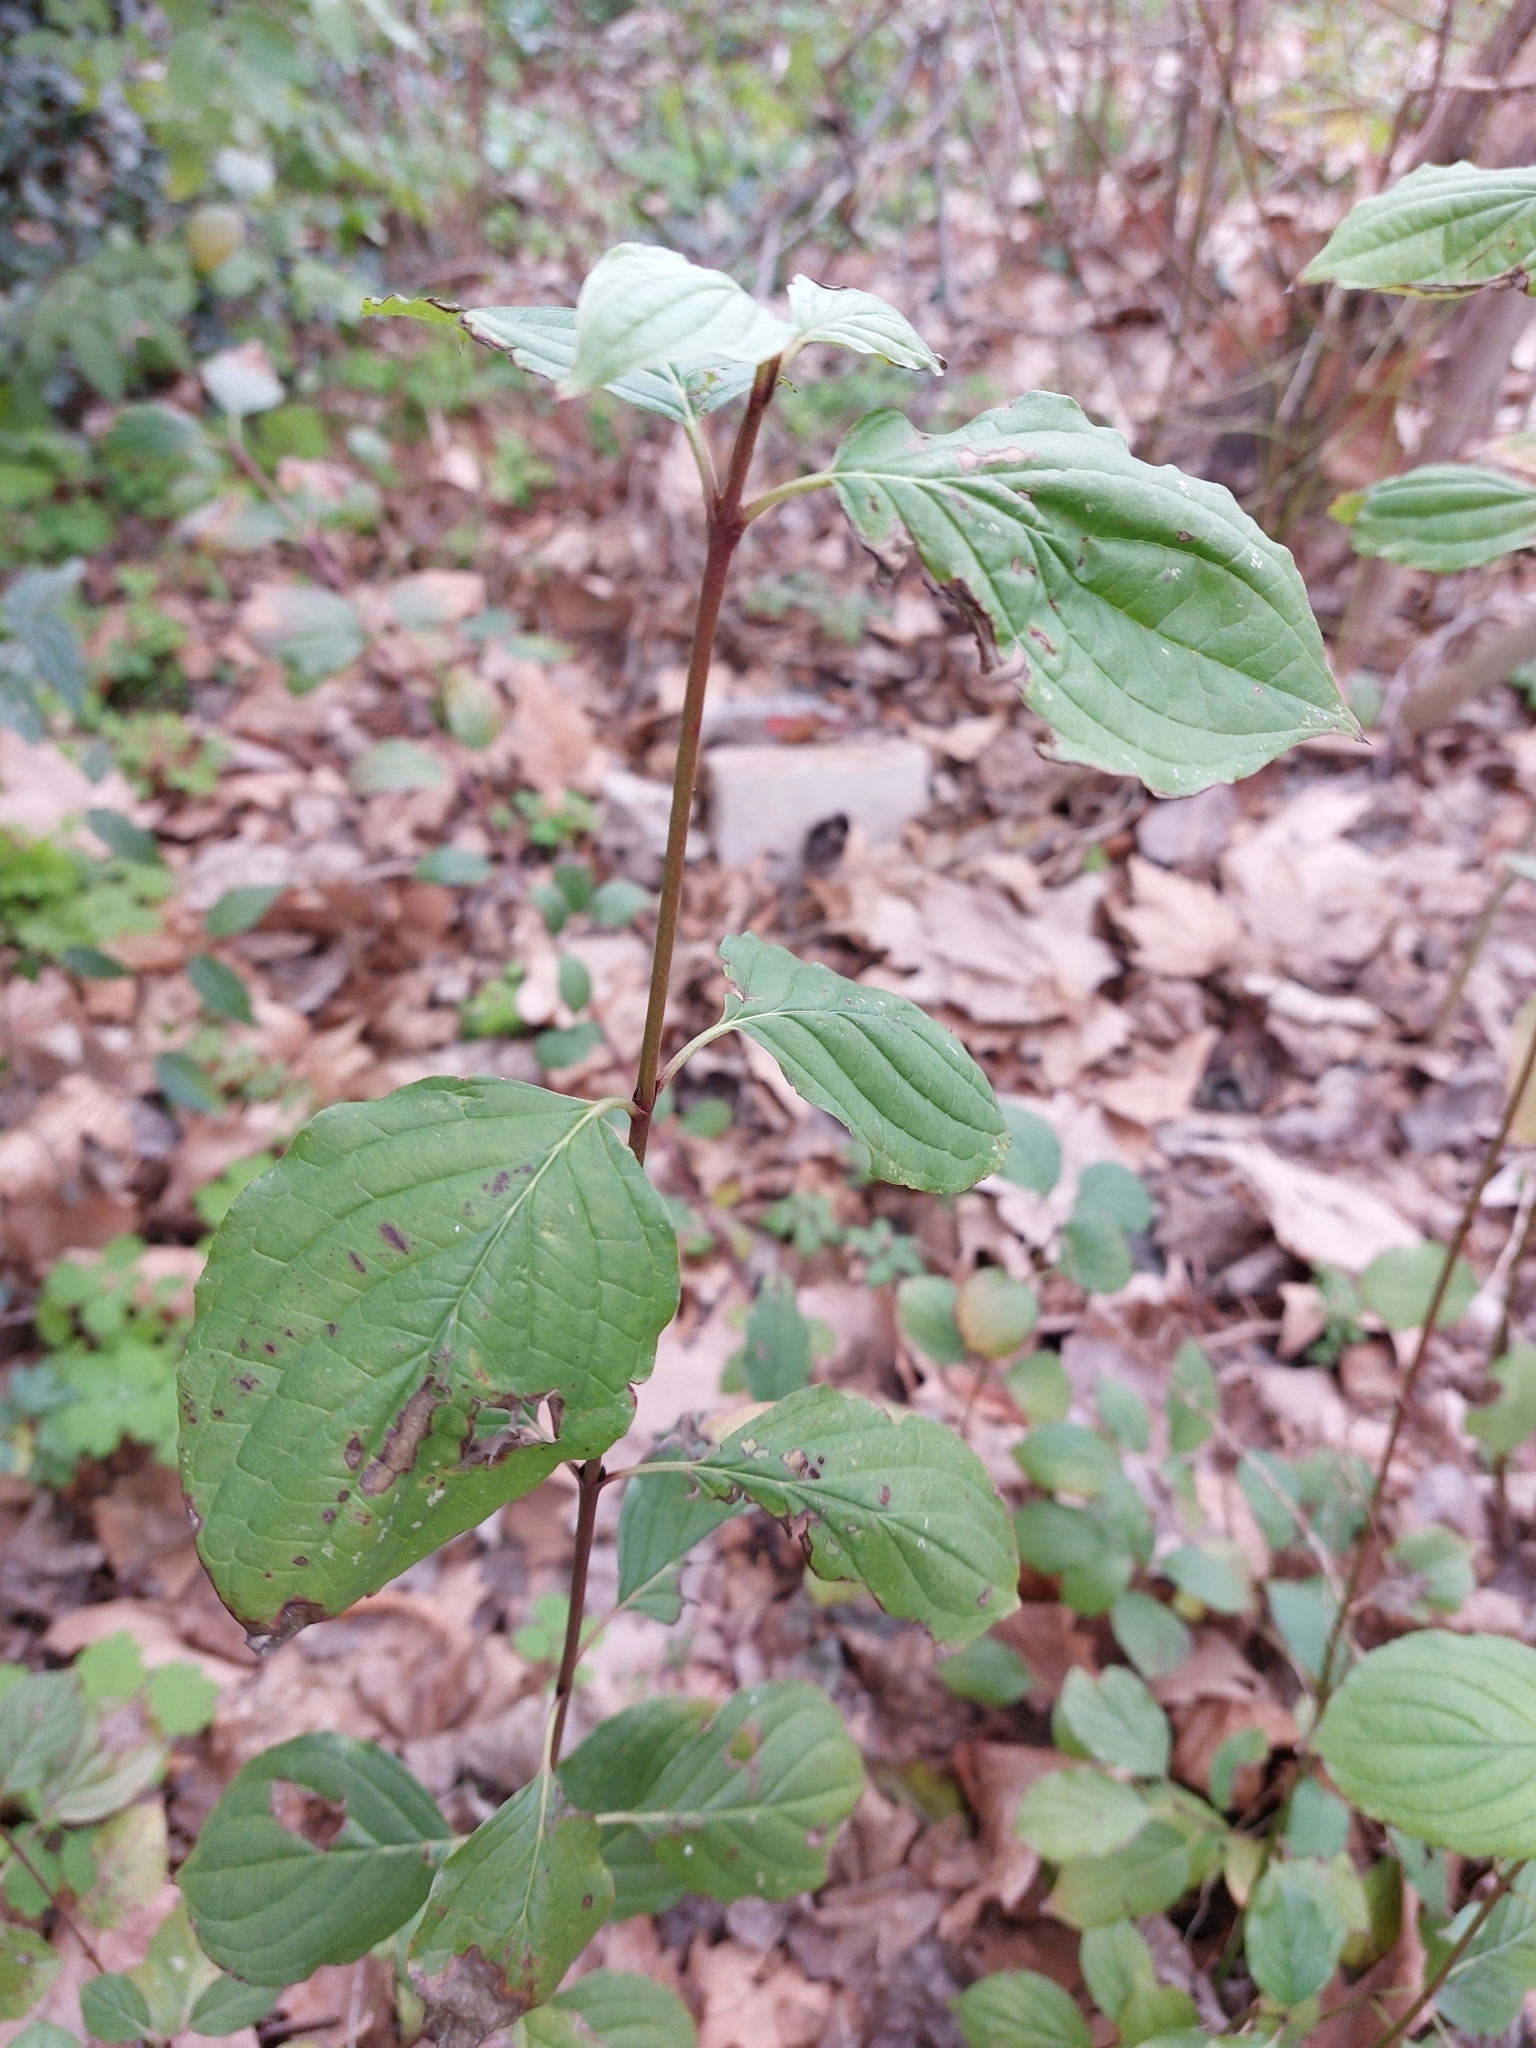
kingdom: Plantae
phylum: Tracheophyta
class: Magnoliopsida
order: Cornales
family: Cornaceae
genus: Cornus
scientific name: Cornus sanguinea
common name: Dogwood
